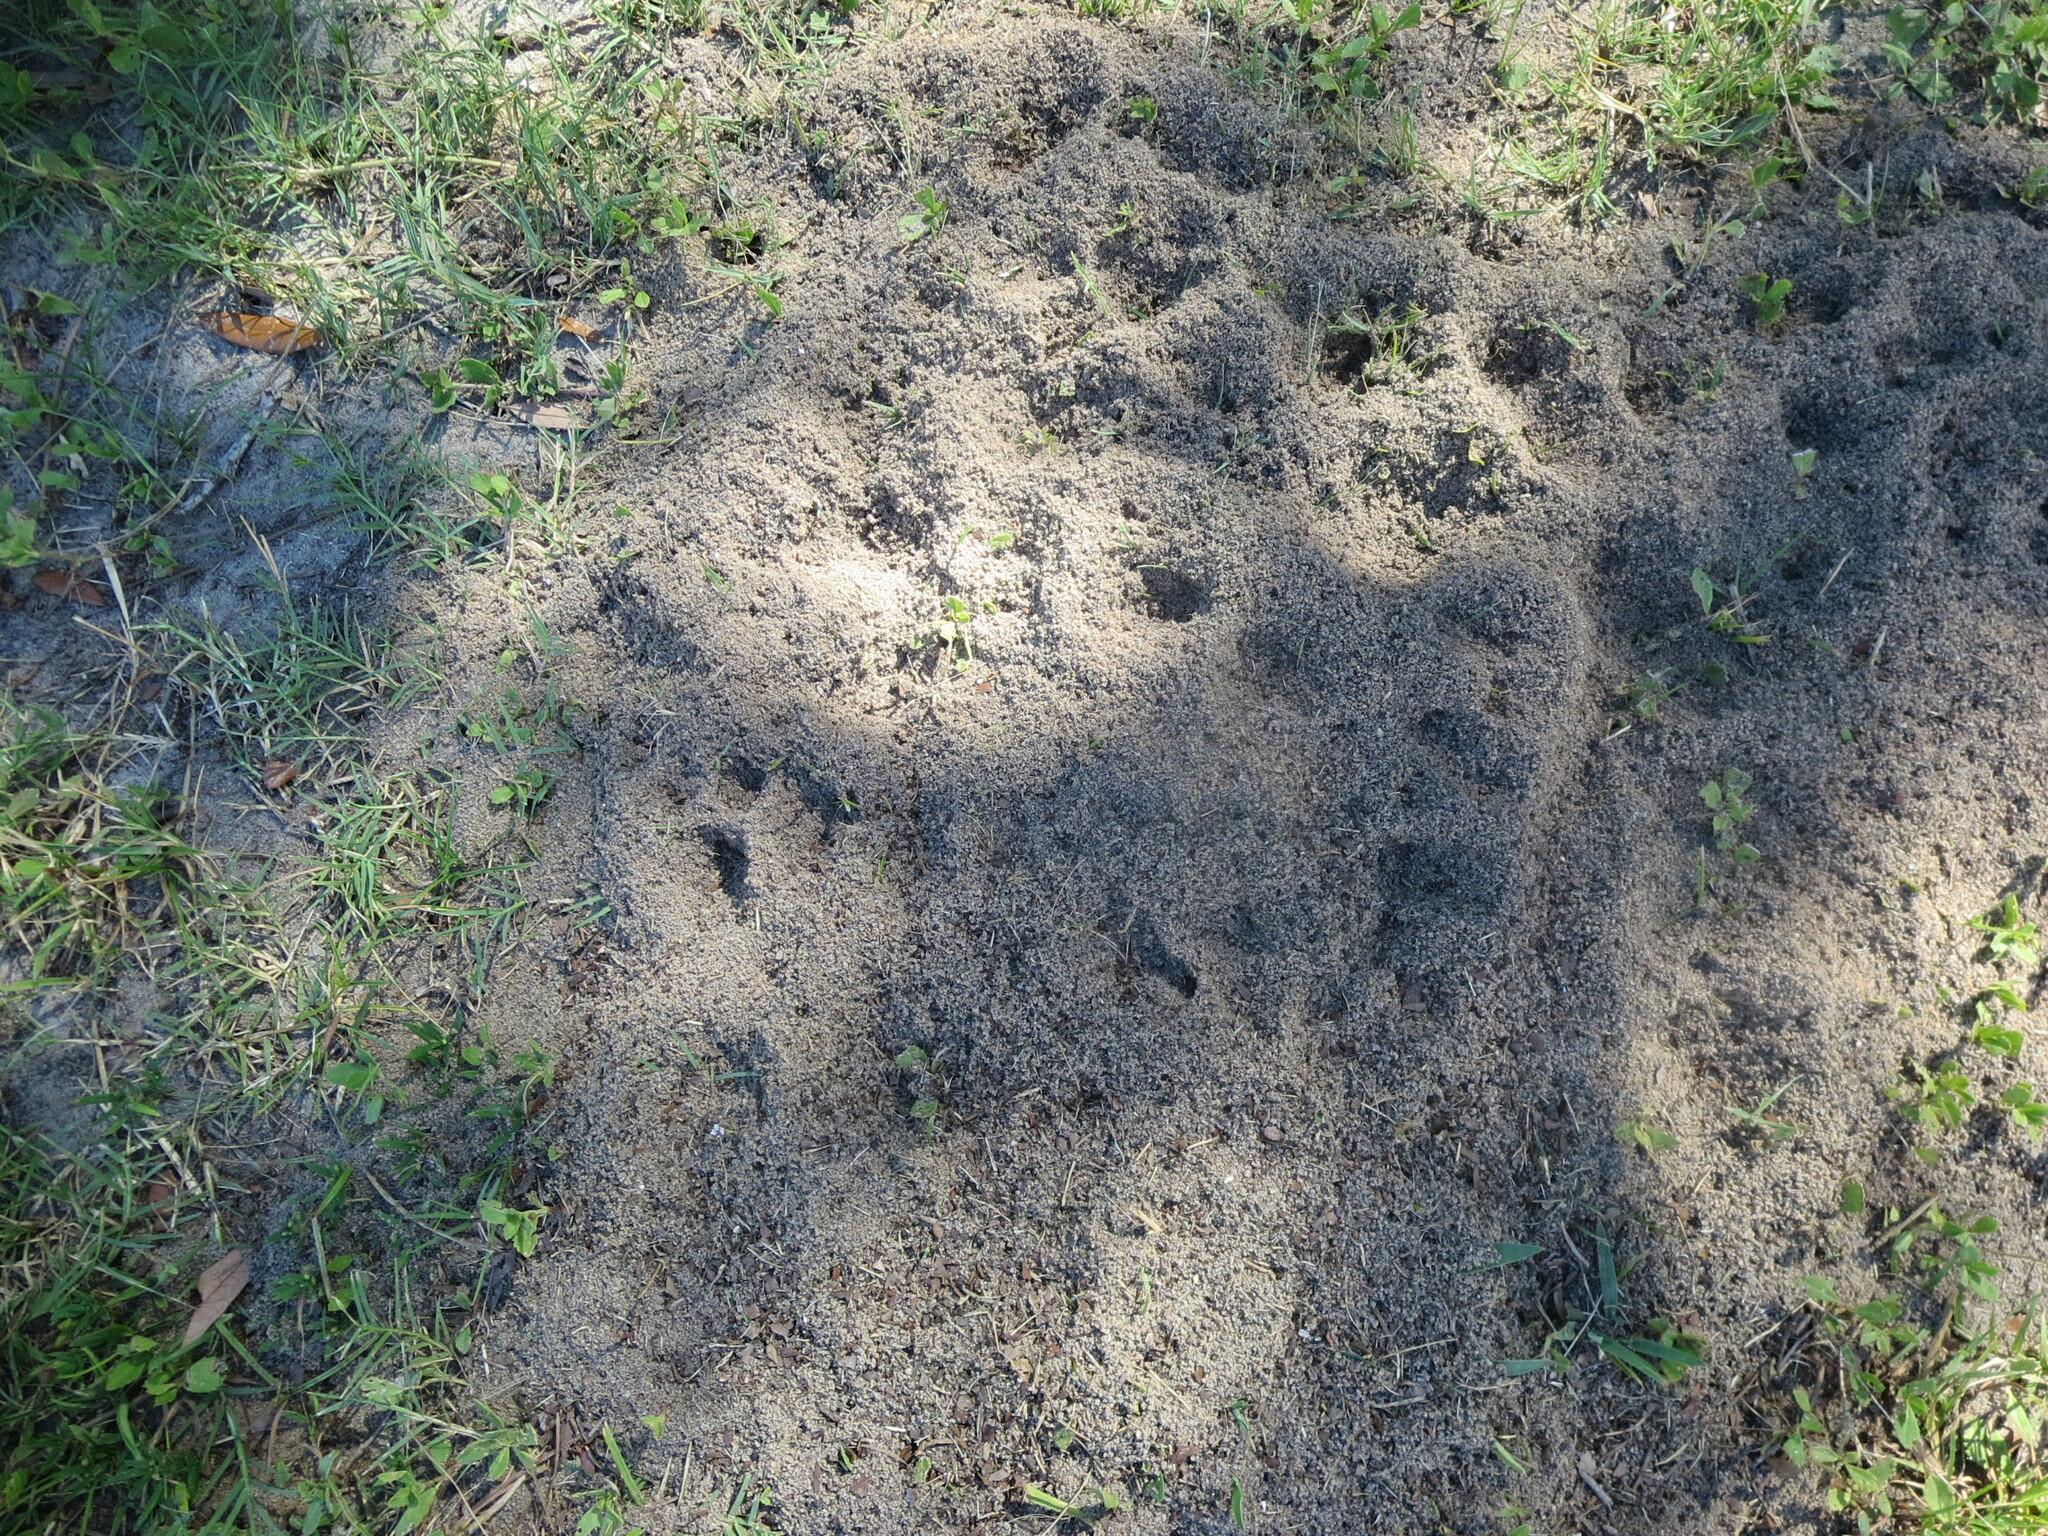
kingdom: Animalia
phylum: Arthropoda
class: Insecta
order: Hymenoptera
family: Formicidae
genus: Solenopsis
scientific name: Solenopsis invicta
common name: Red imported fire ant
